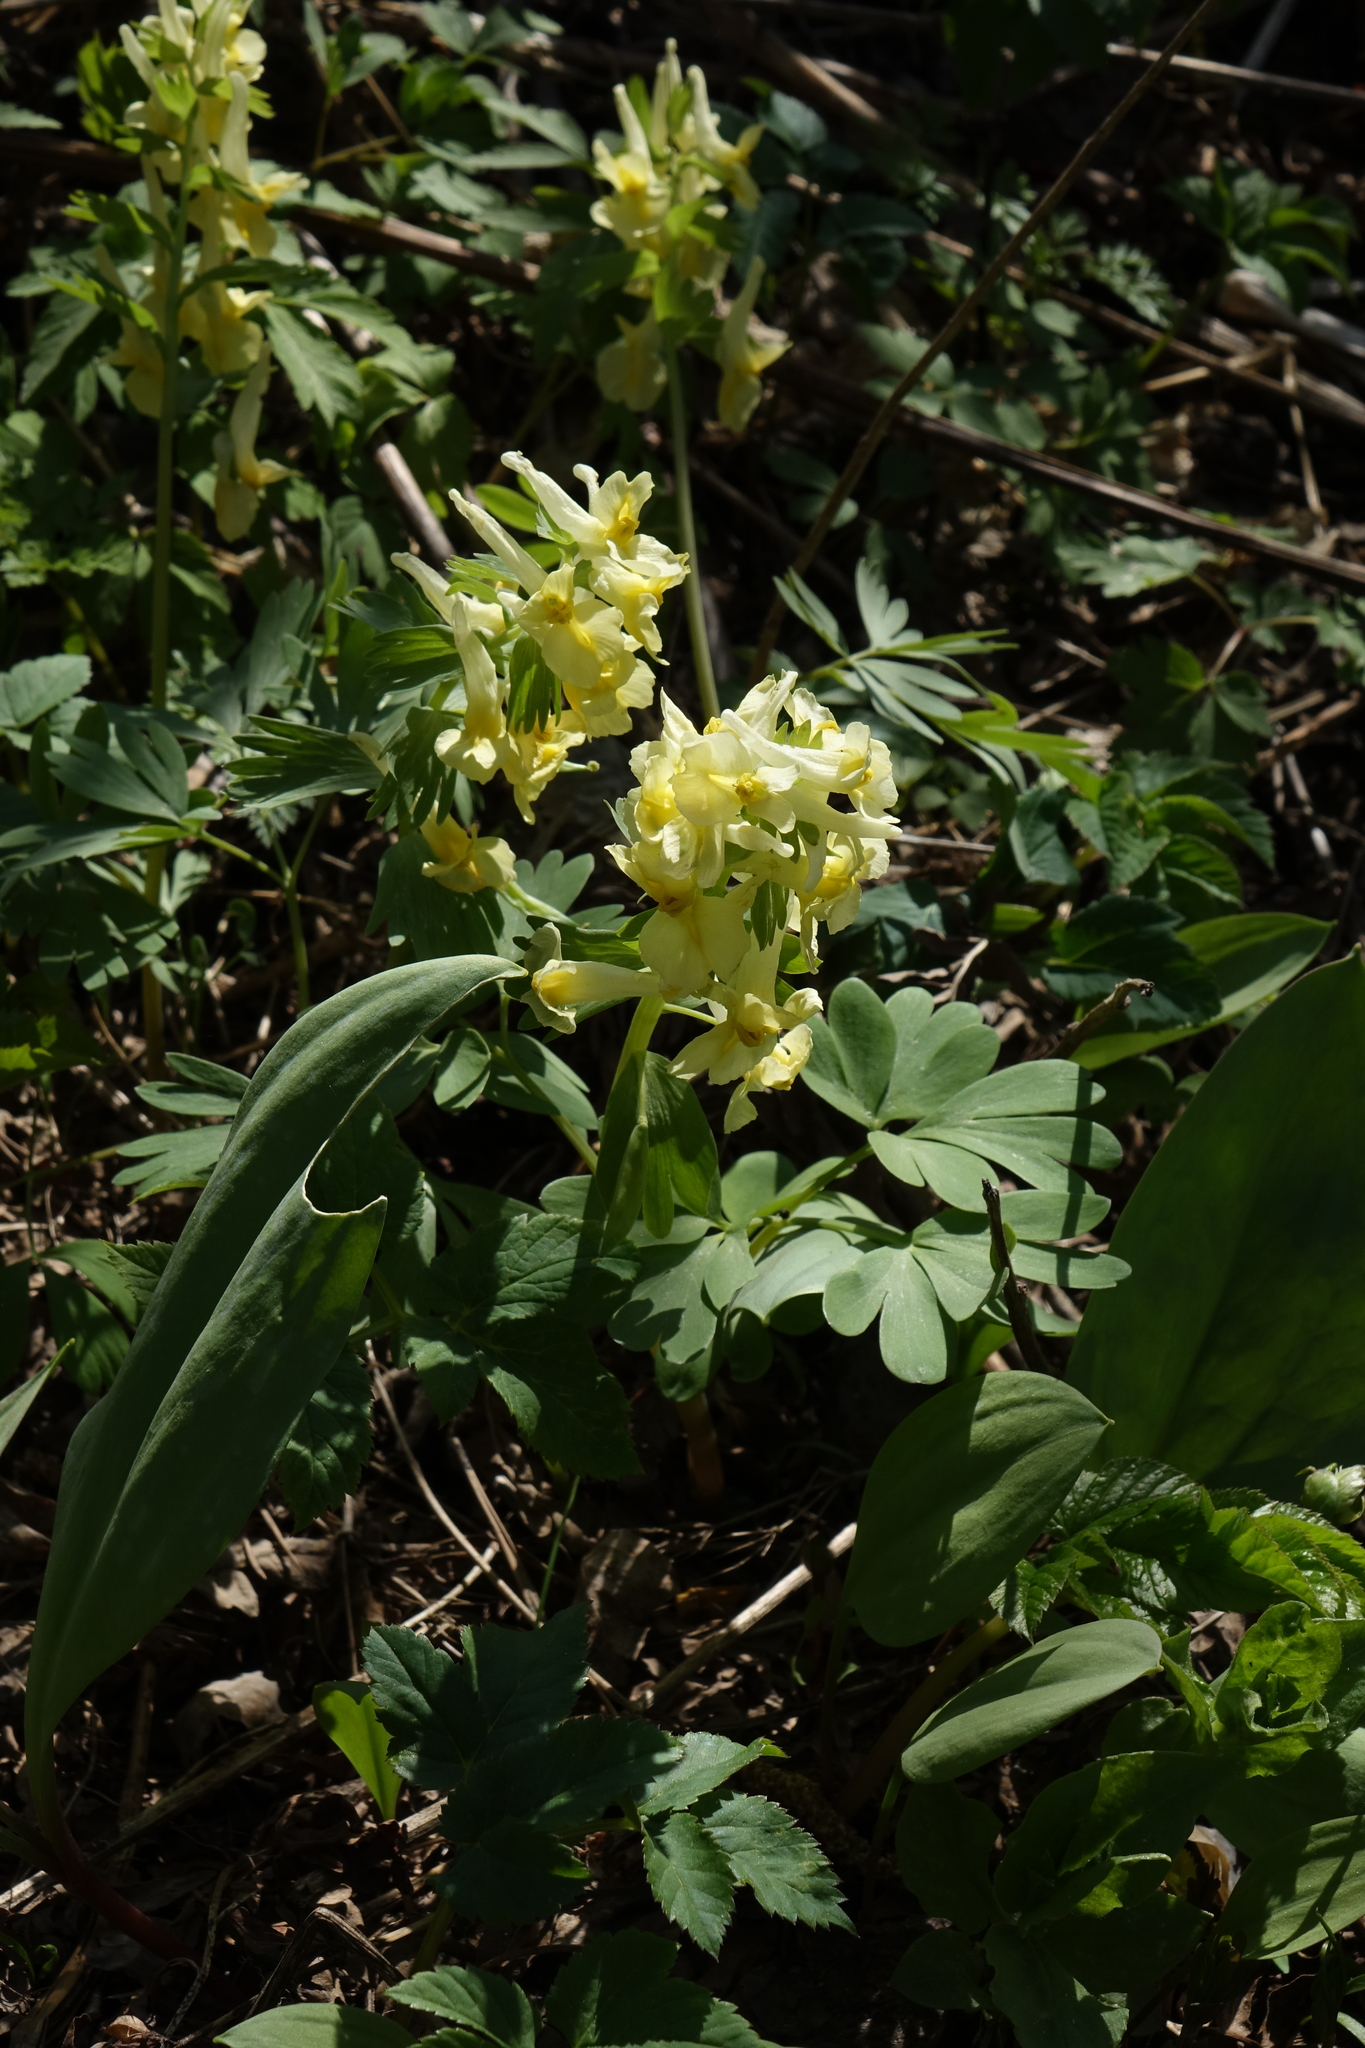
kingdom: Plantae
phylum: Tracheophyta
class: Magnoliopsida
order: Ranunculales
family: Papaveraceae
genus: Corydalis
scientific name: Corydalis bracteata
